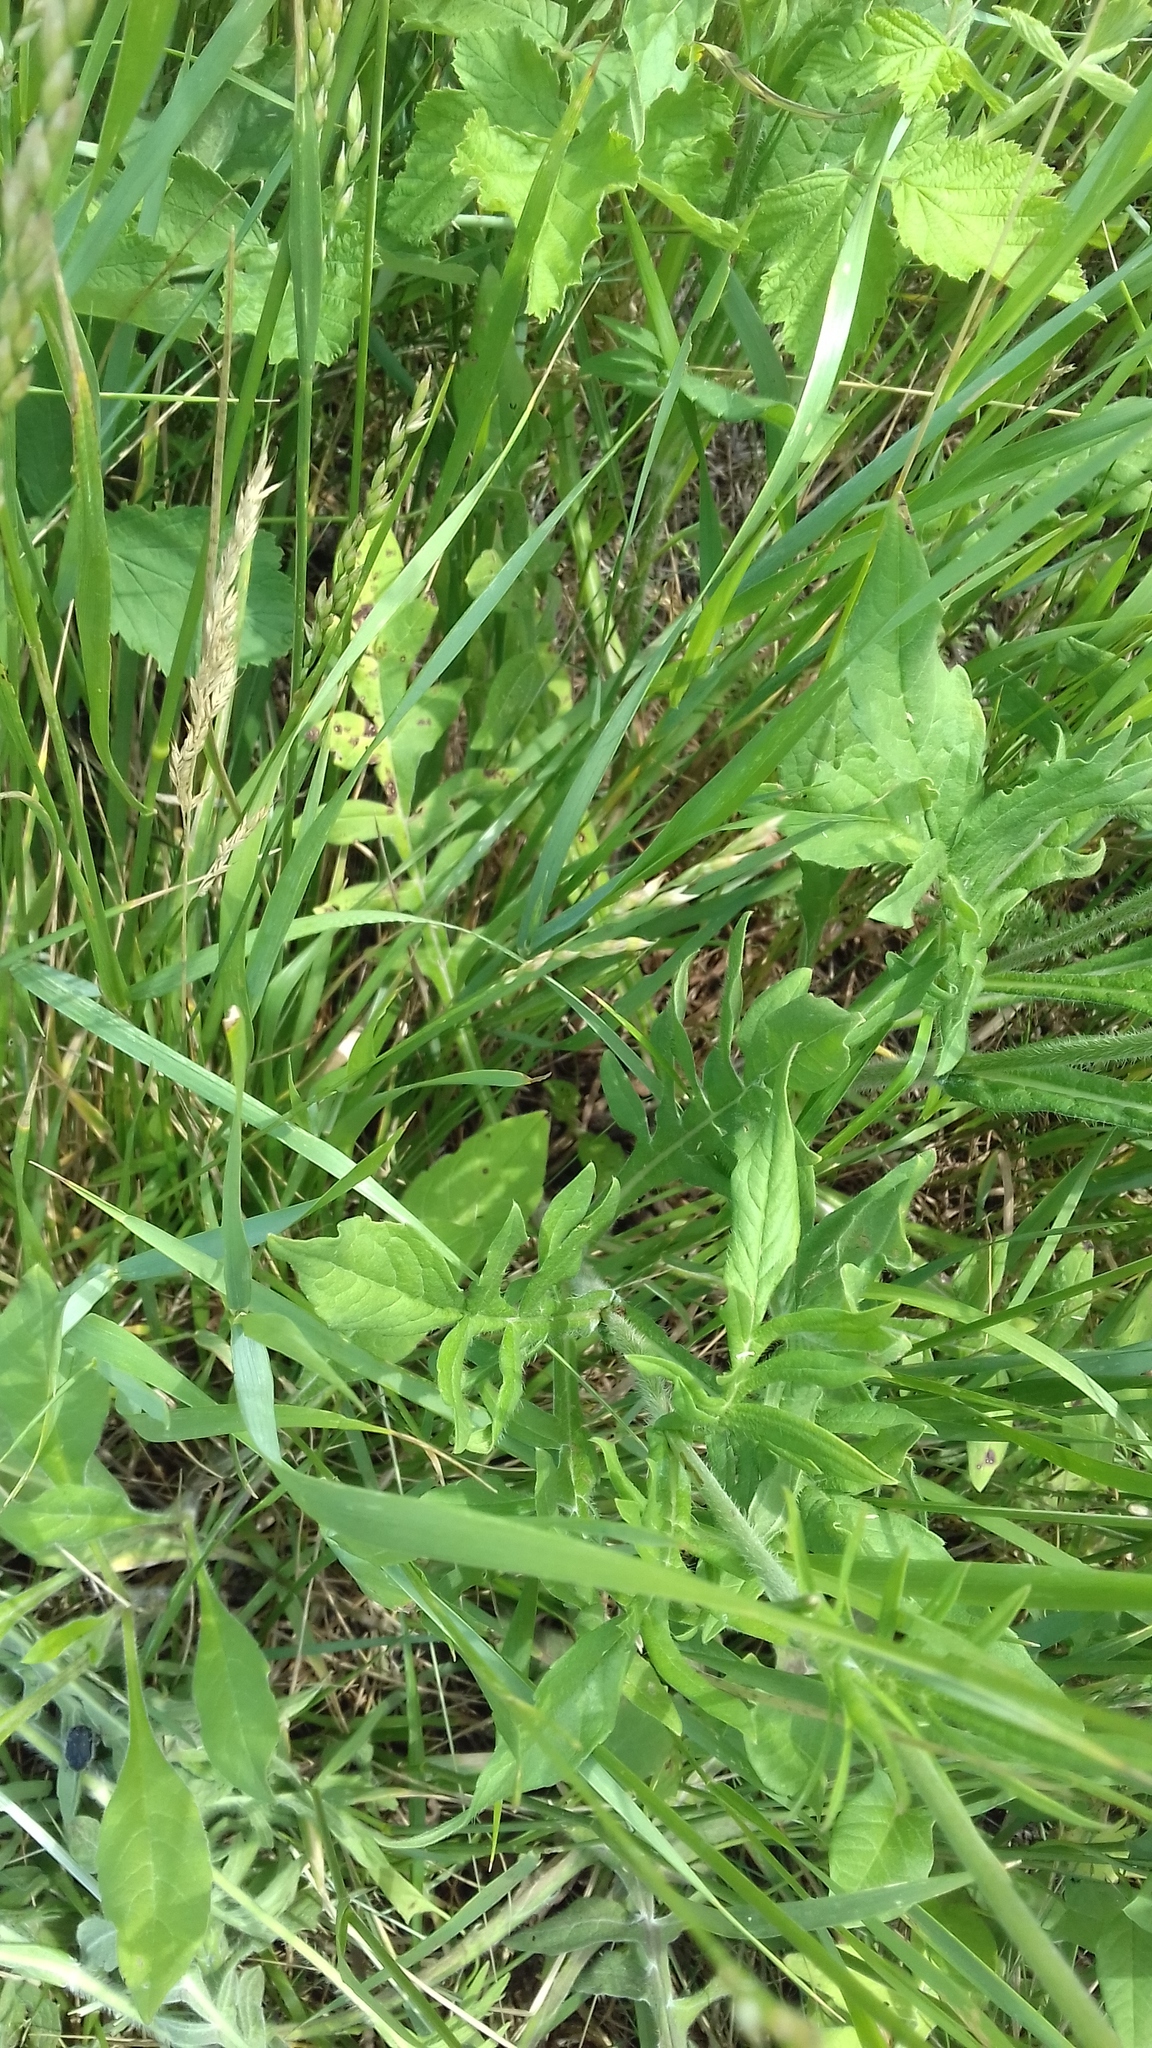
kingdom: Plantae
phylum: Tracheophyta
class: Magnoliopsida
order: Dipsacales
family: Caprifoliaceae
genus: Knautia
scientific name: Knautia arvensis
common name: Field scabiosa
